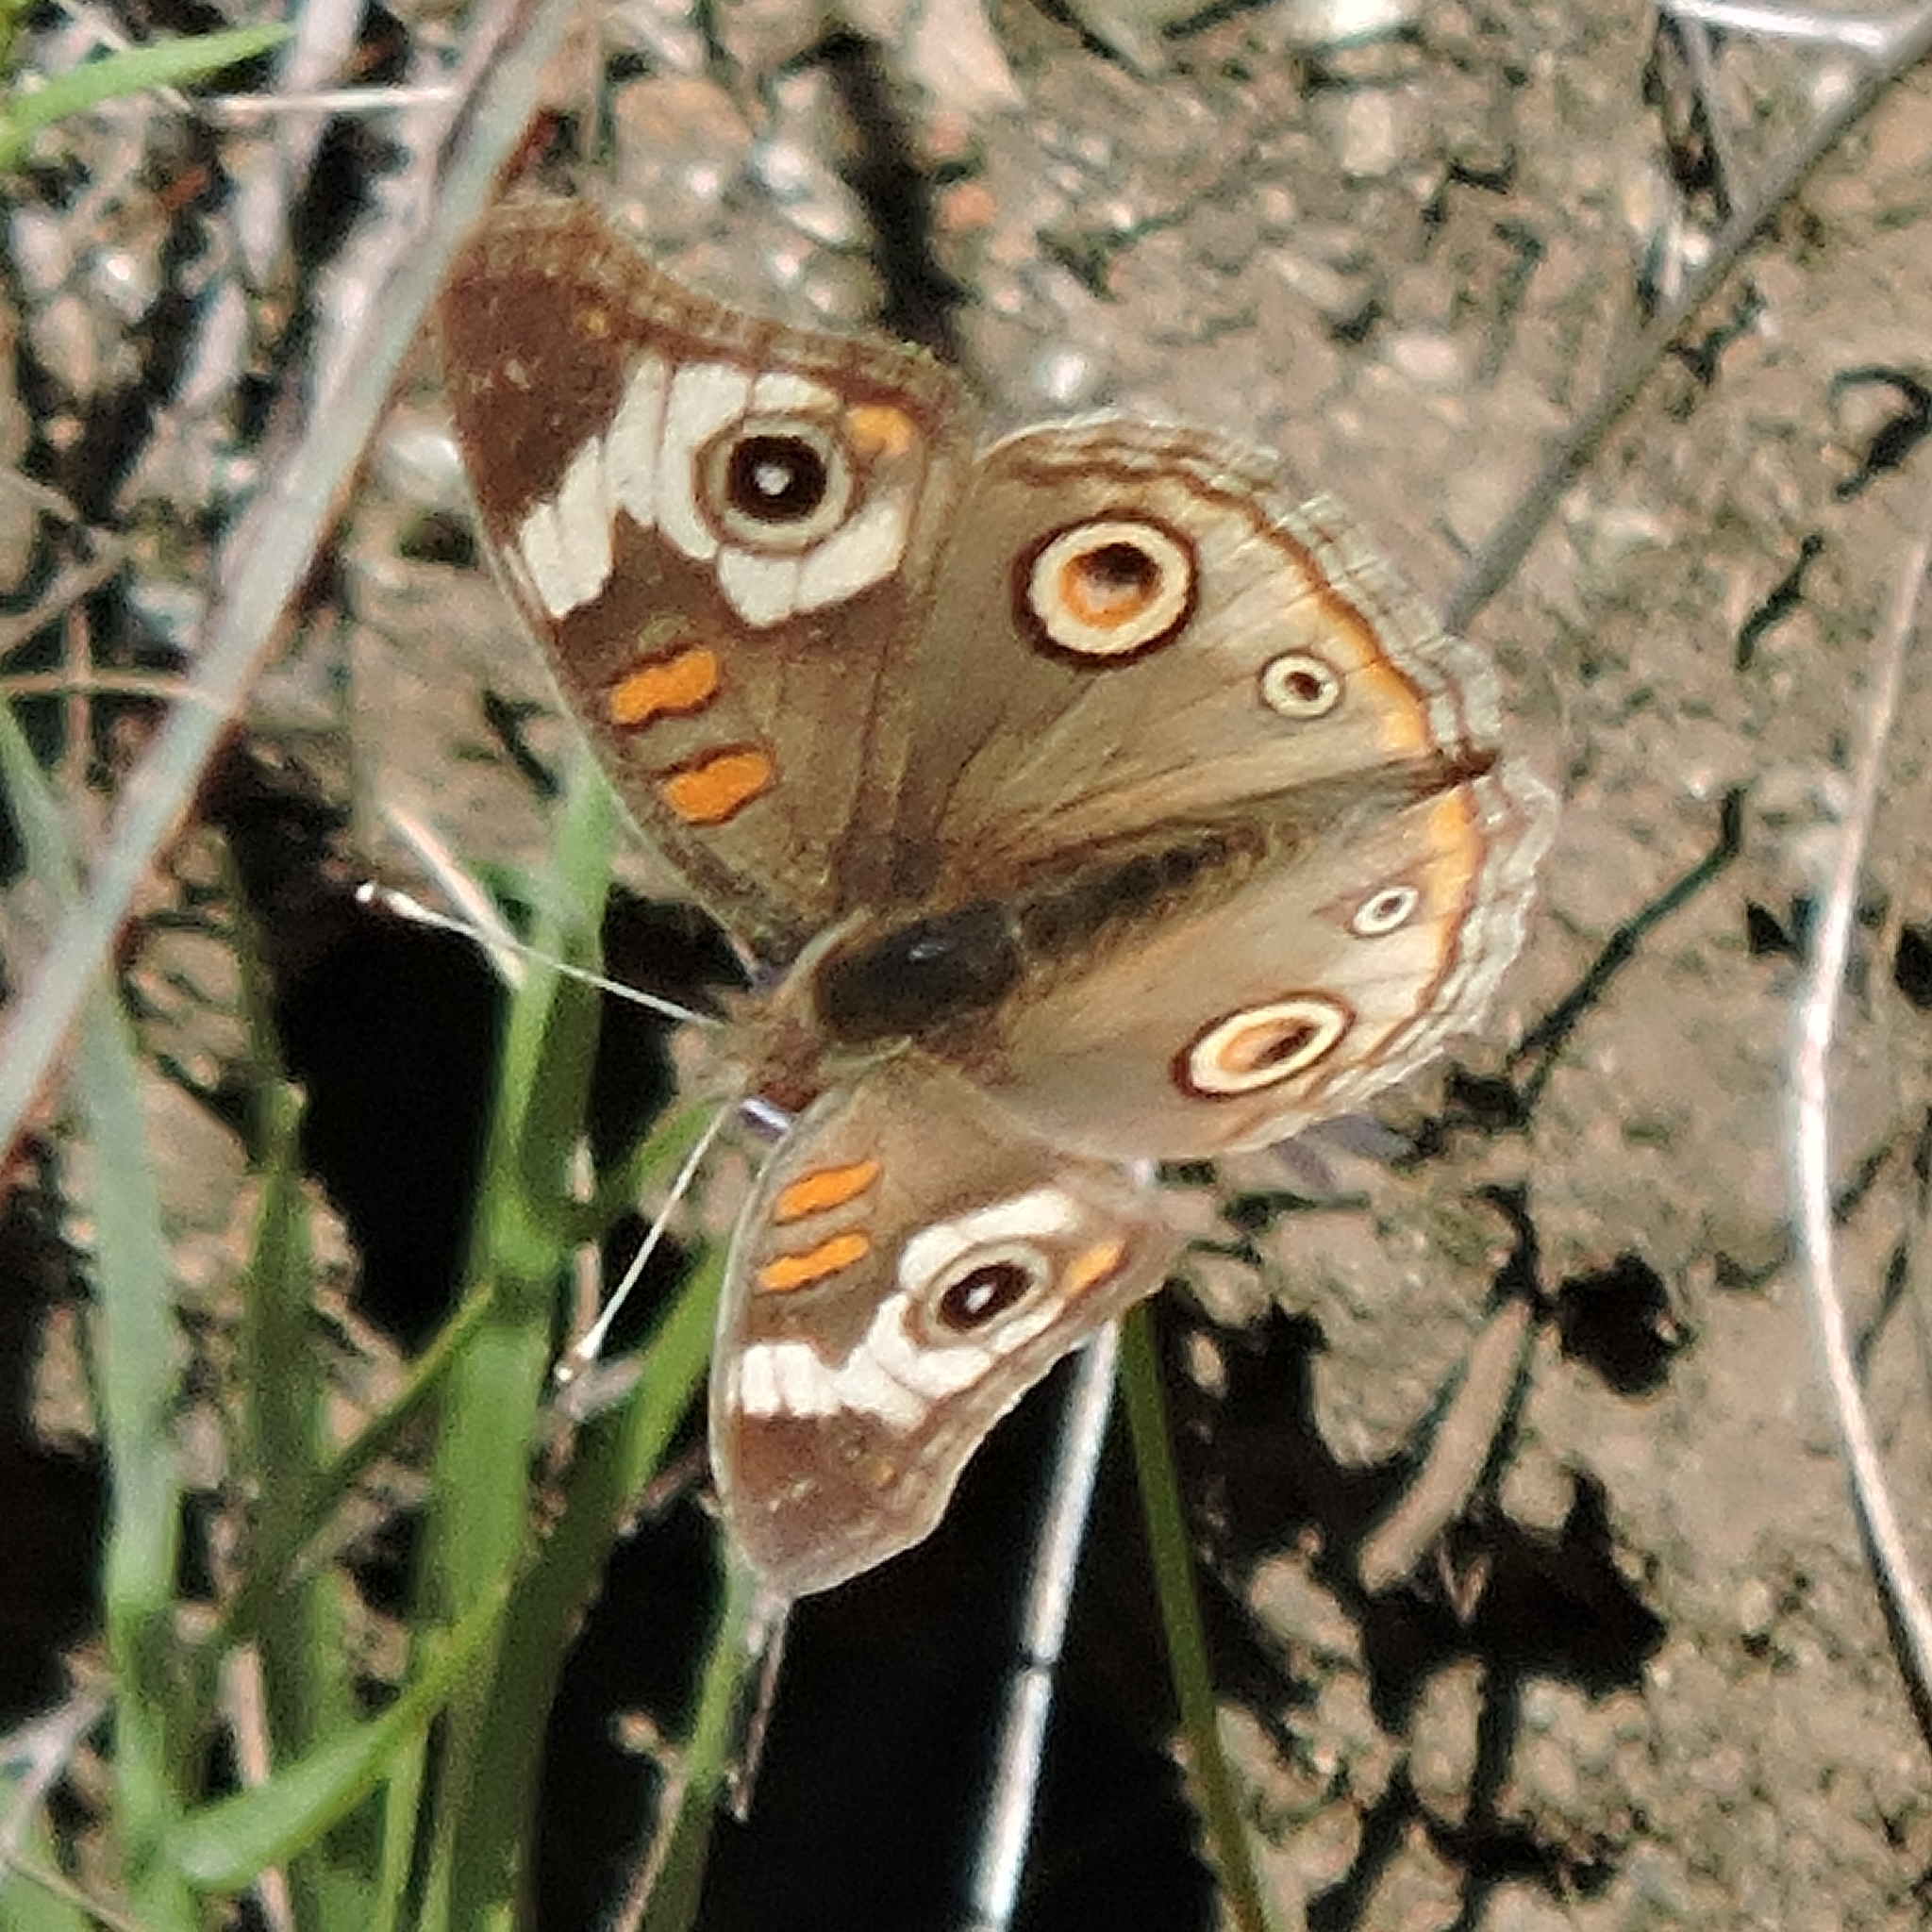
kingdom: Animalia
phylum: Arthropoda
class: Insecta
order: Lepidoptera
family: Nymphalidae
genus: Junonia
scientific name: Junonia grisea
